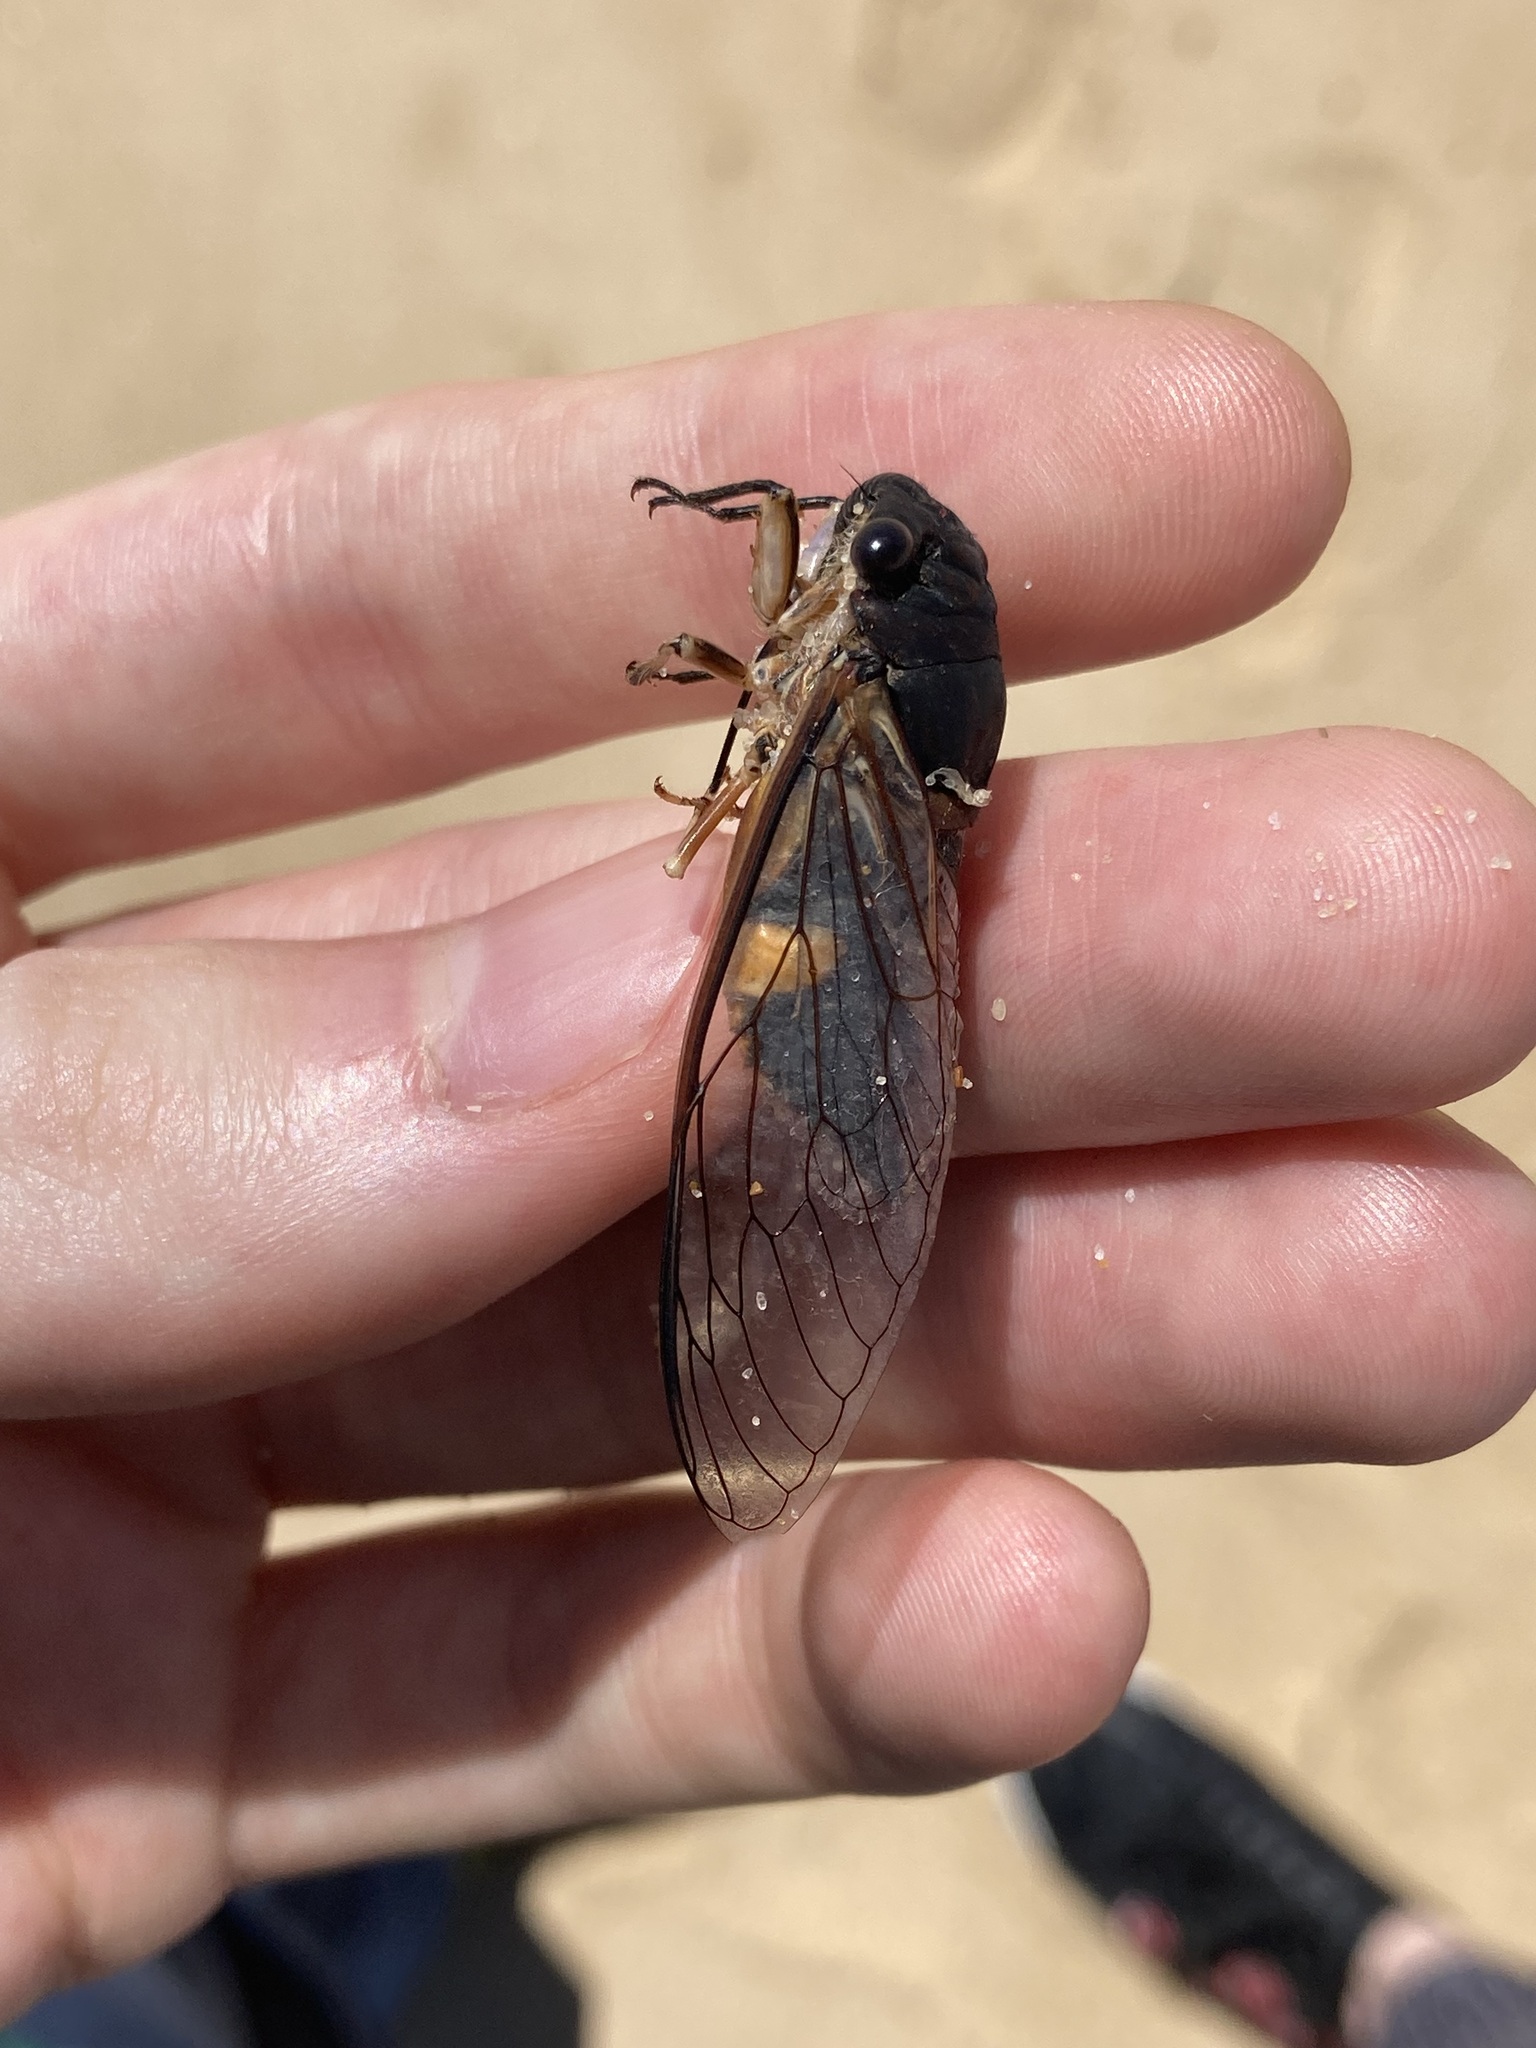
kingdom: Animalia
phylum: Arthropoda
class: Insecta
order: Hemiptera
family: Cicadidae
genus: Psaltoda
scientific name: Psaltoda harrisii
